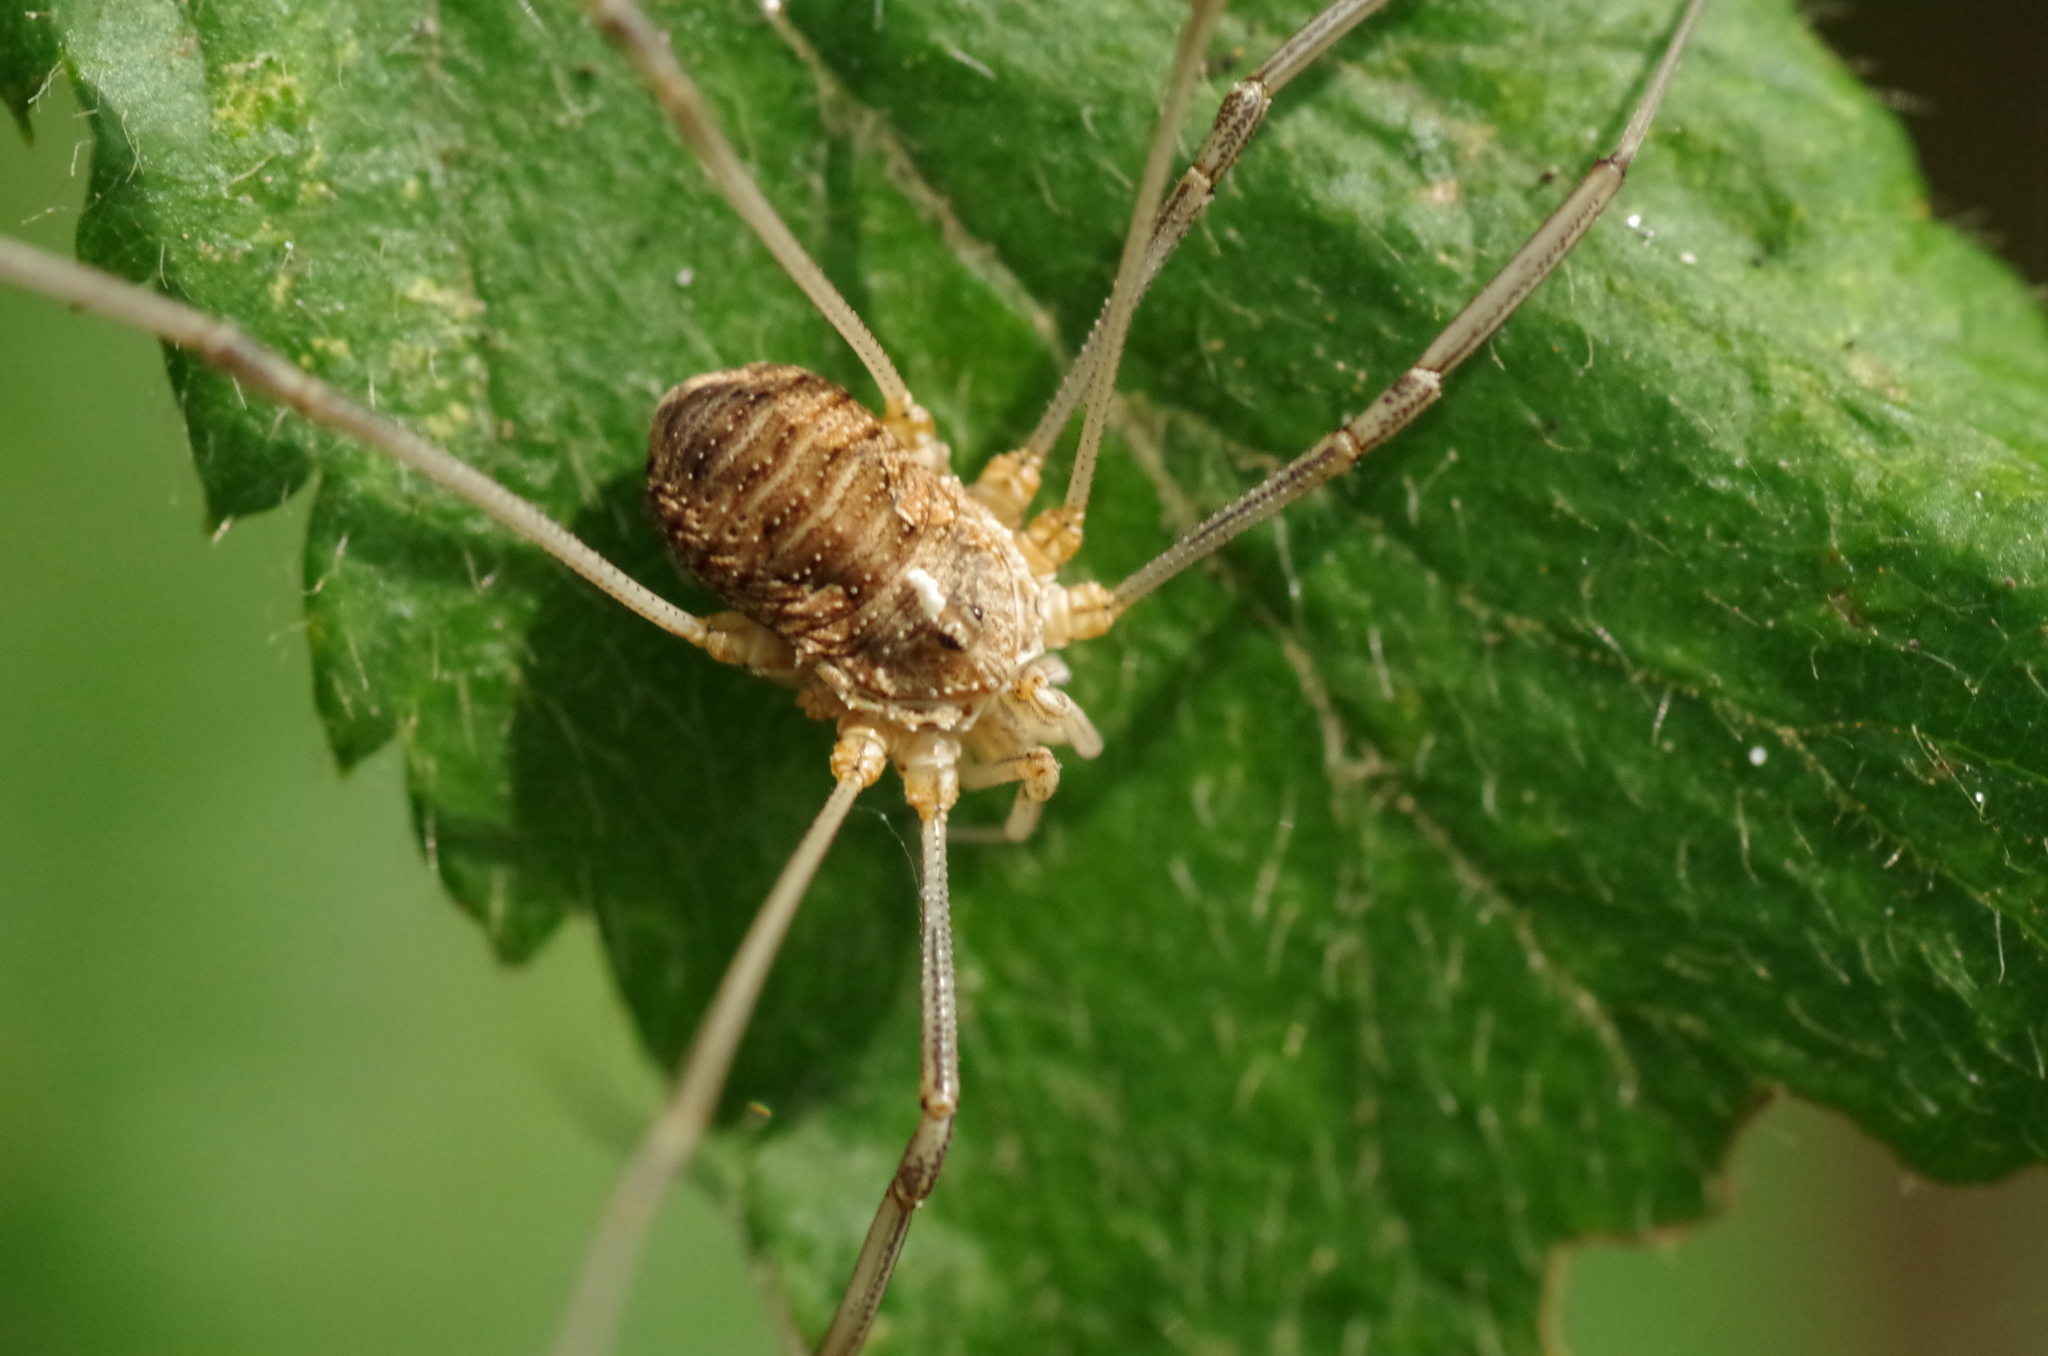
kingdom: Animalia
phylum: Arthropoda
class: Arachnida
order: Opiliones
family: Phalangiidae
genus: Phalangium
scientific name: Phalangium opilio
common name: Daddy longleg
